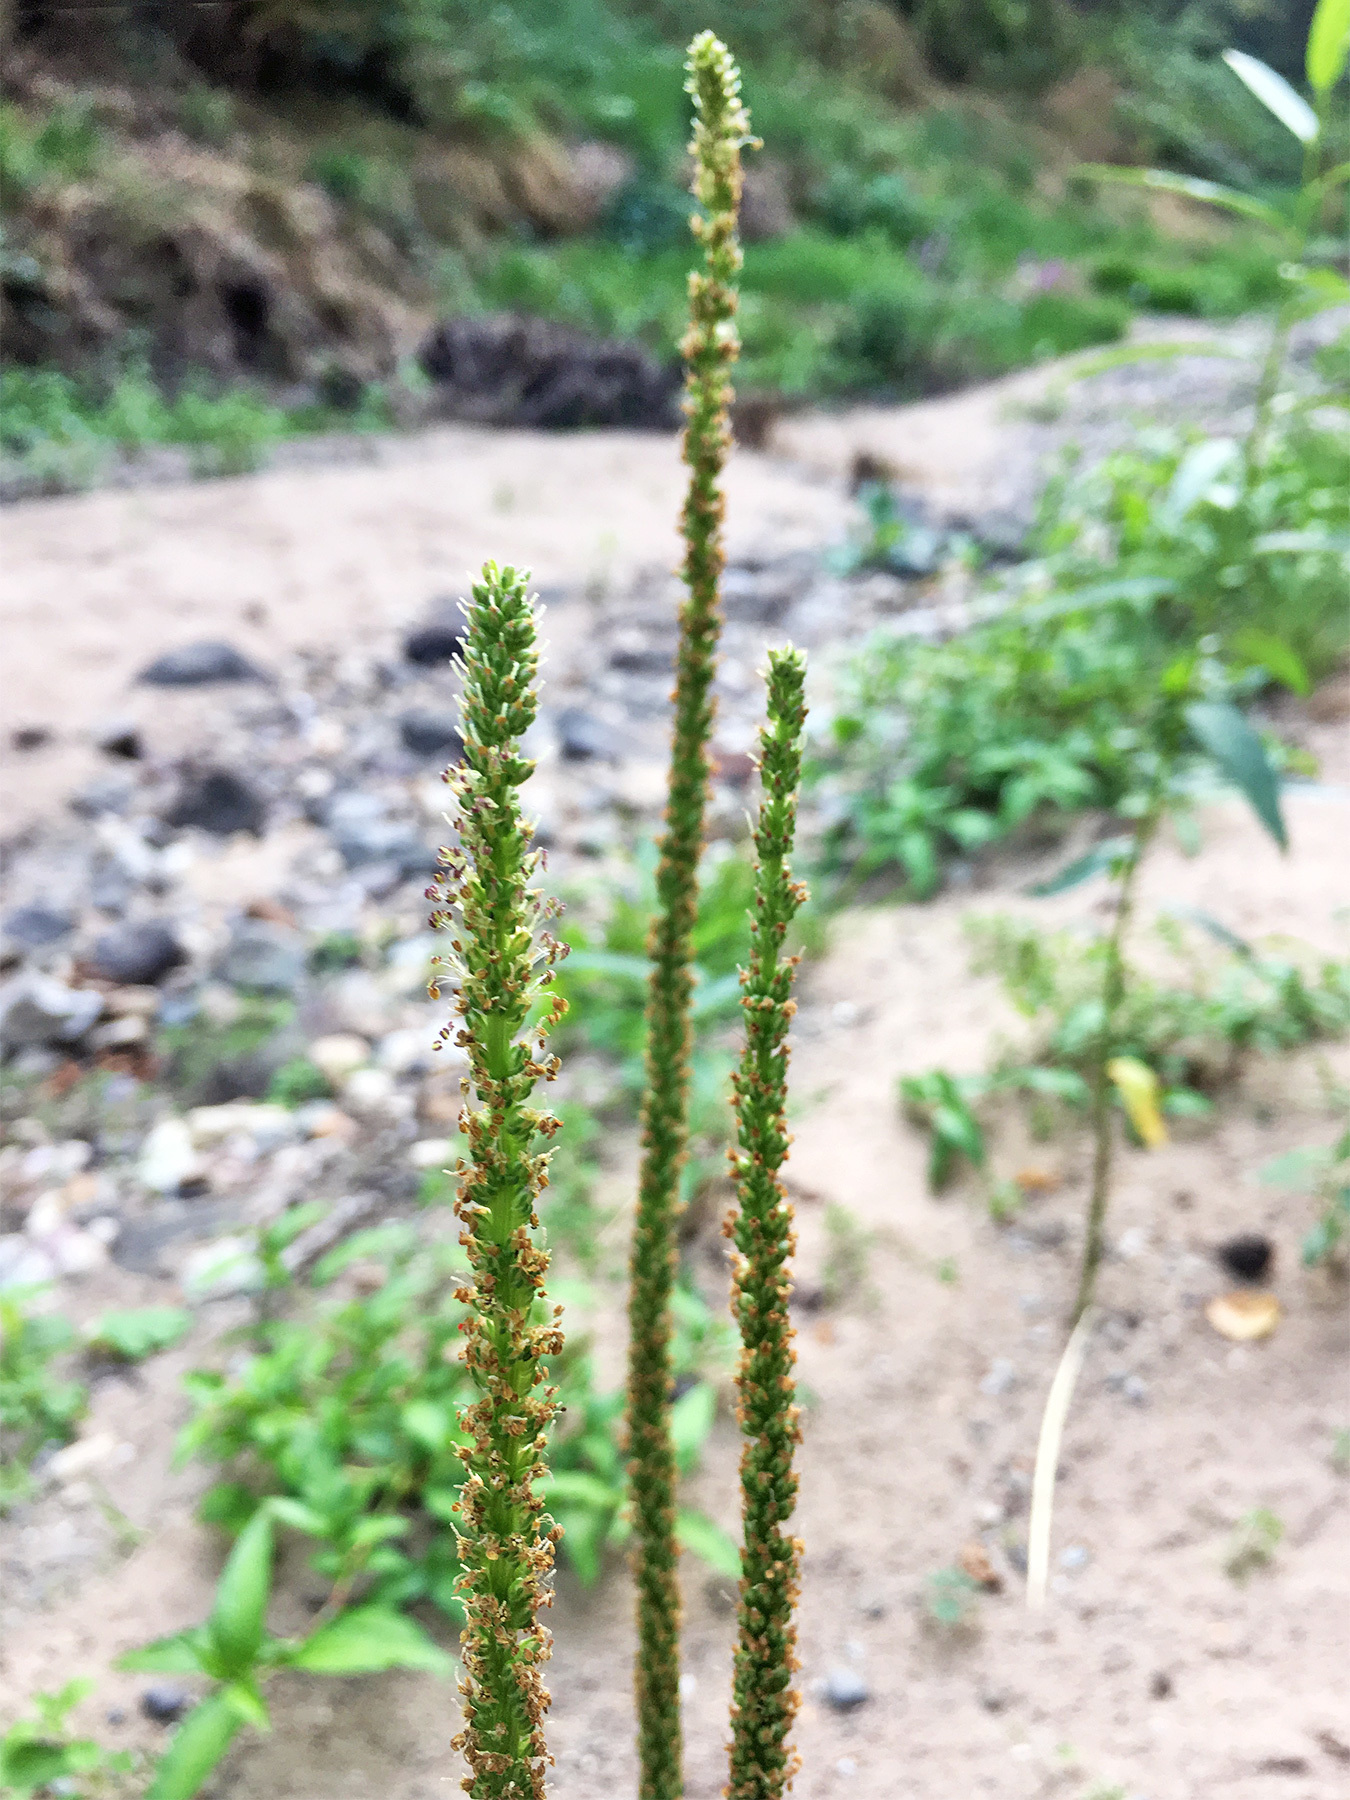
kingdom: Plantae
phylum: Tracheophyta
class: Magnoliopsida
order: Lamiales
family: Plantaginaceae
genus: Plantago
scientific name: Plantago major
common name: Common plantain
